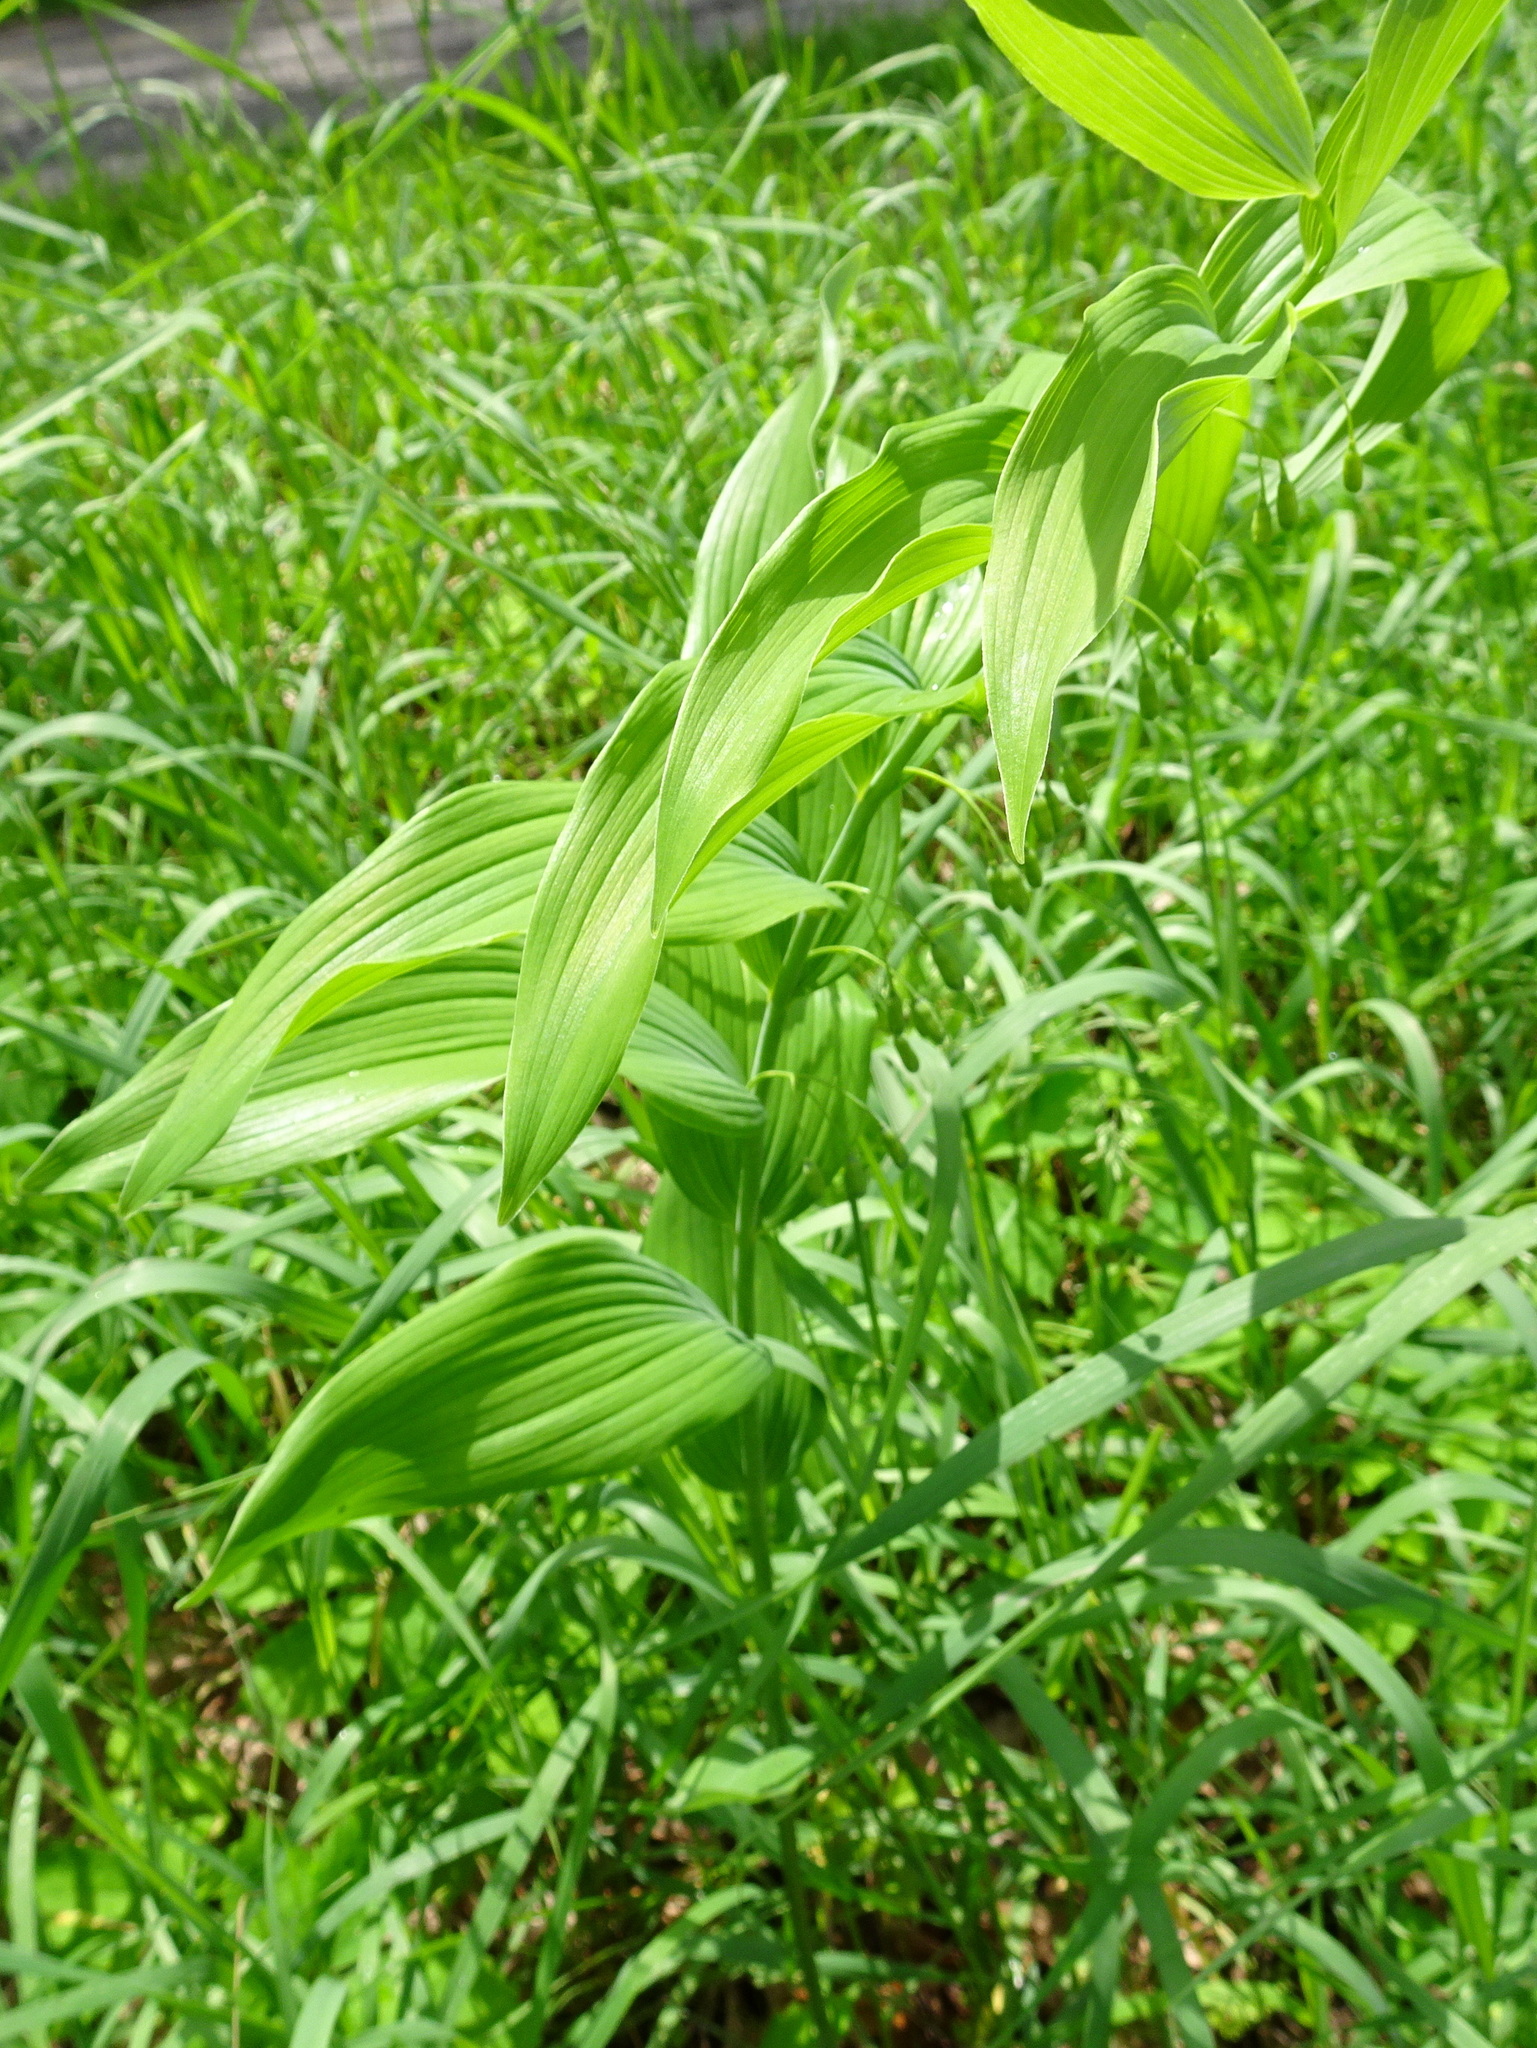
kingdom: Plantae
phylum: Tracheophyta
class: Liliopsida
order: Asparagales
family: Asparagaceae
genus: Polygonatum
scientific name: Polygonatum biflorum
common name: American solomon's-seal
